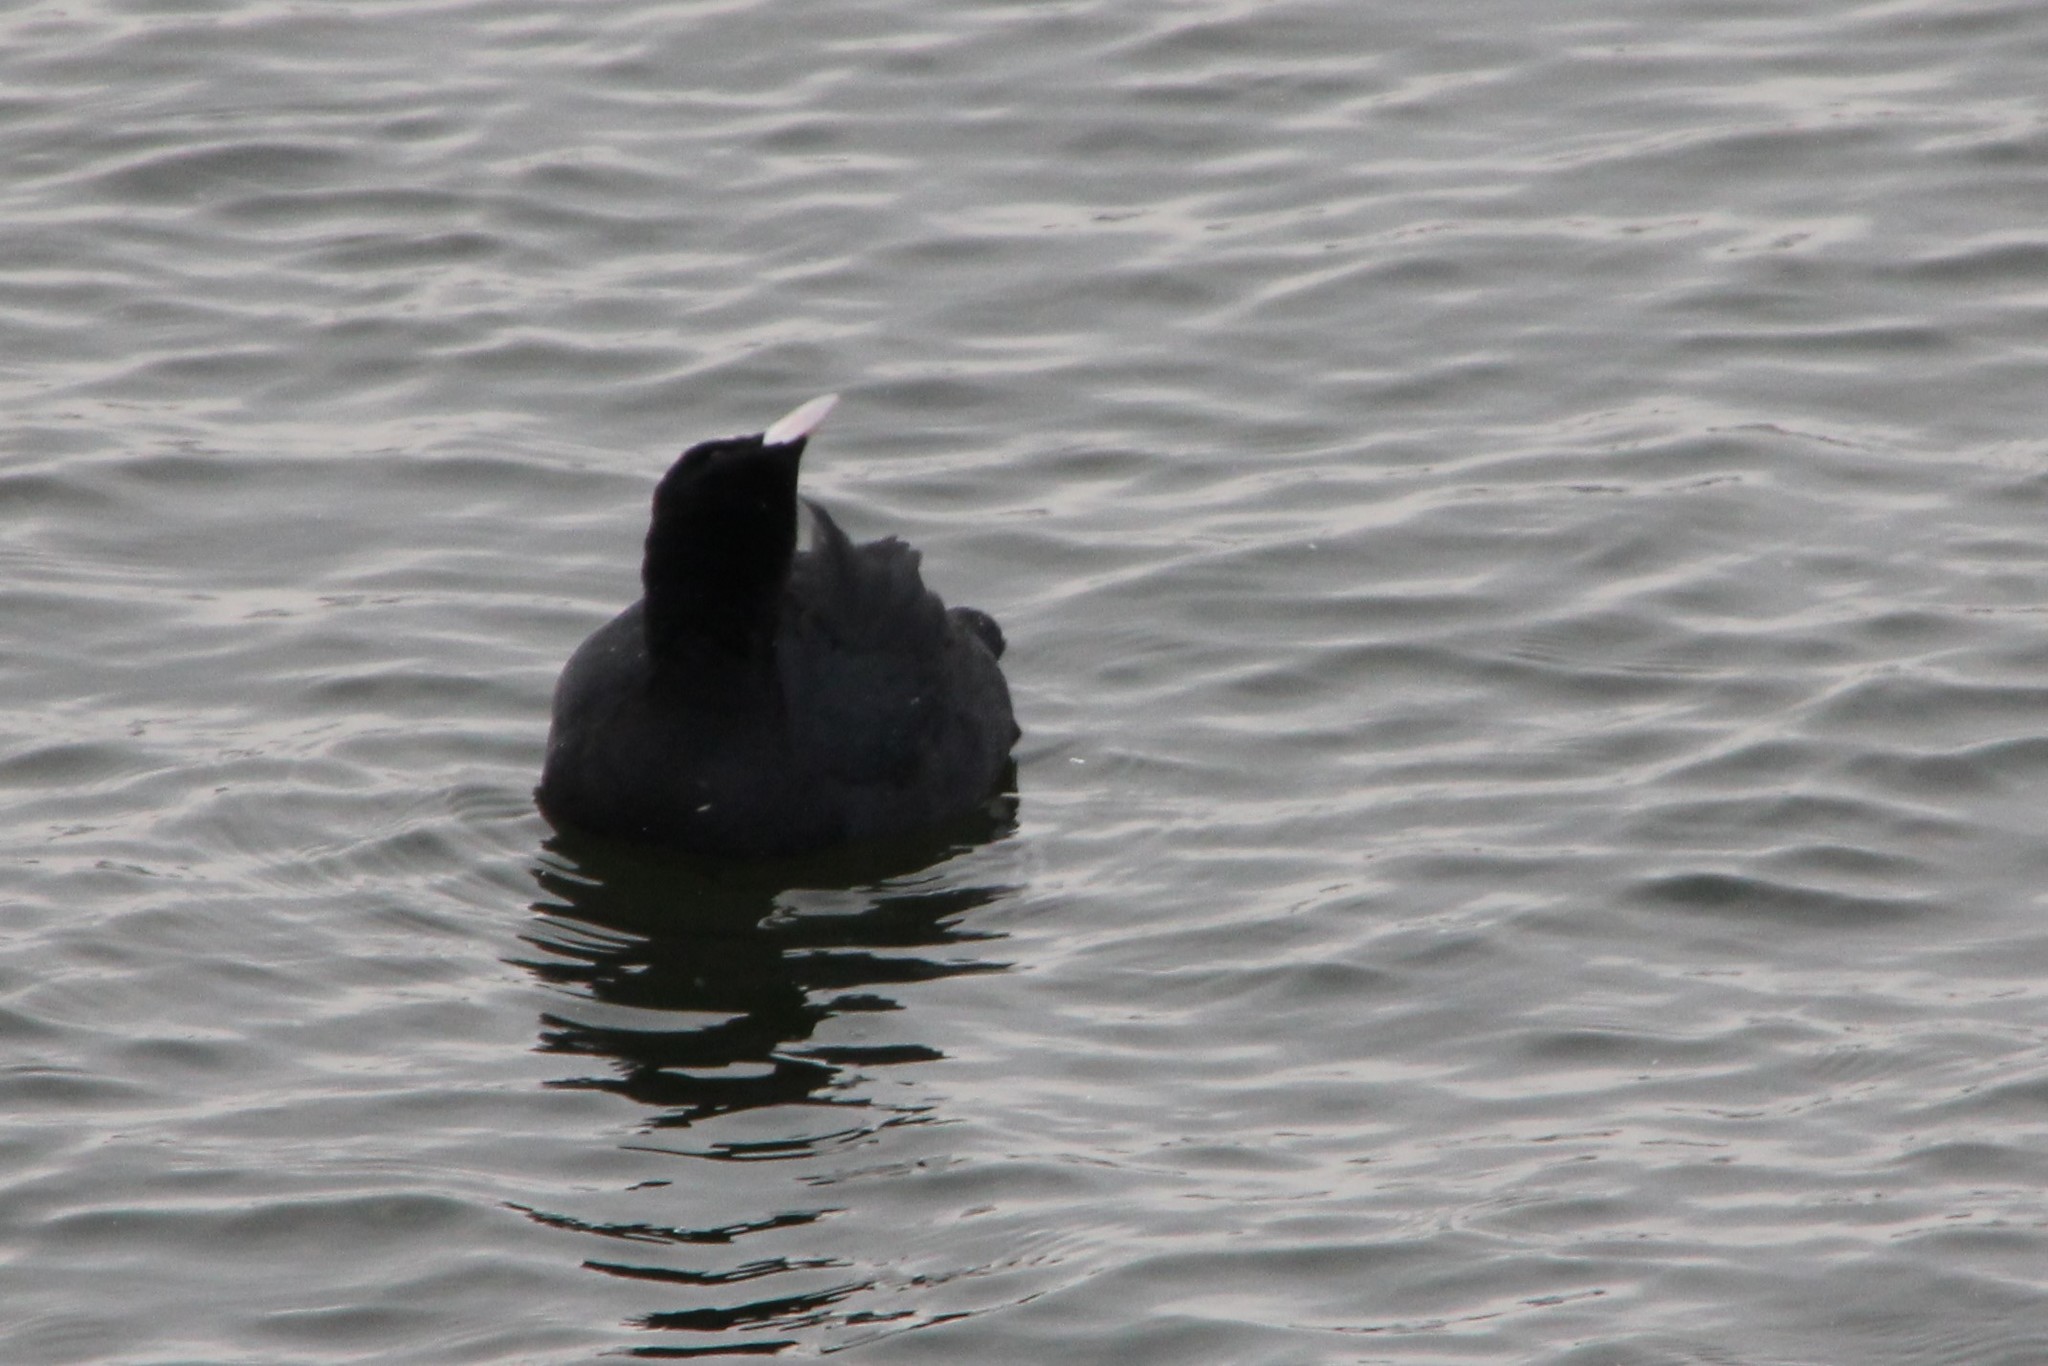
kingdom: Animalia
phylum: Chordata
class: Aves
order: Gruiformes
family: Rallidae
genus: Fulica
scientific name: Fulica atra
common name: Eurasian coot
